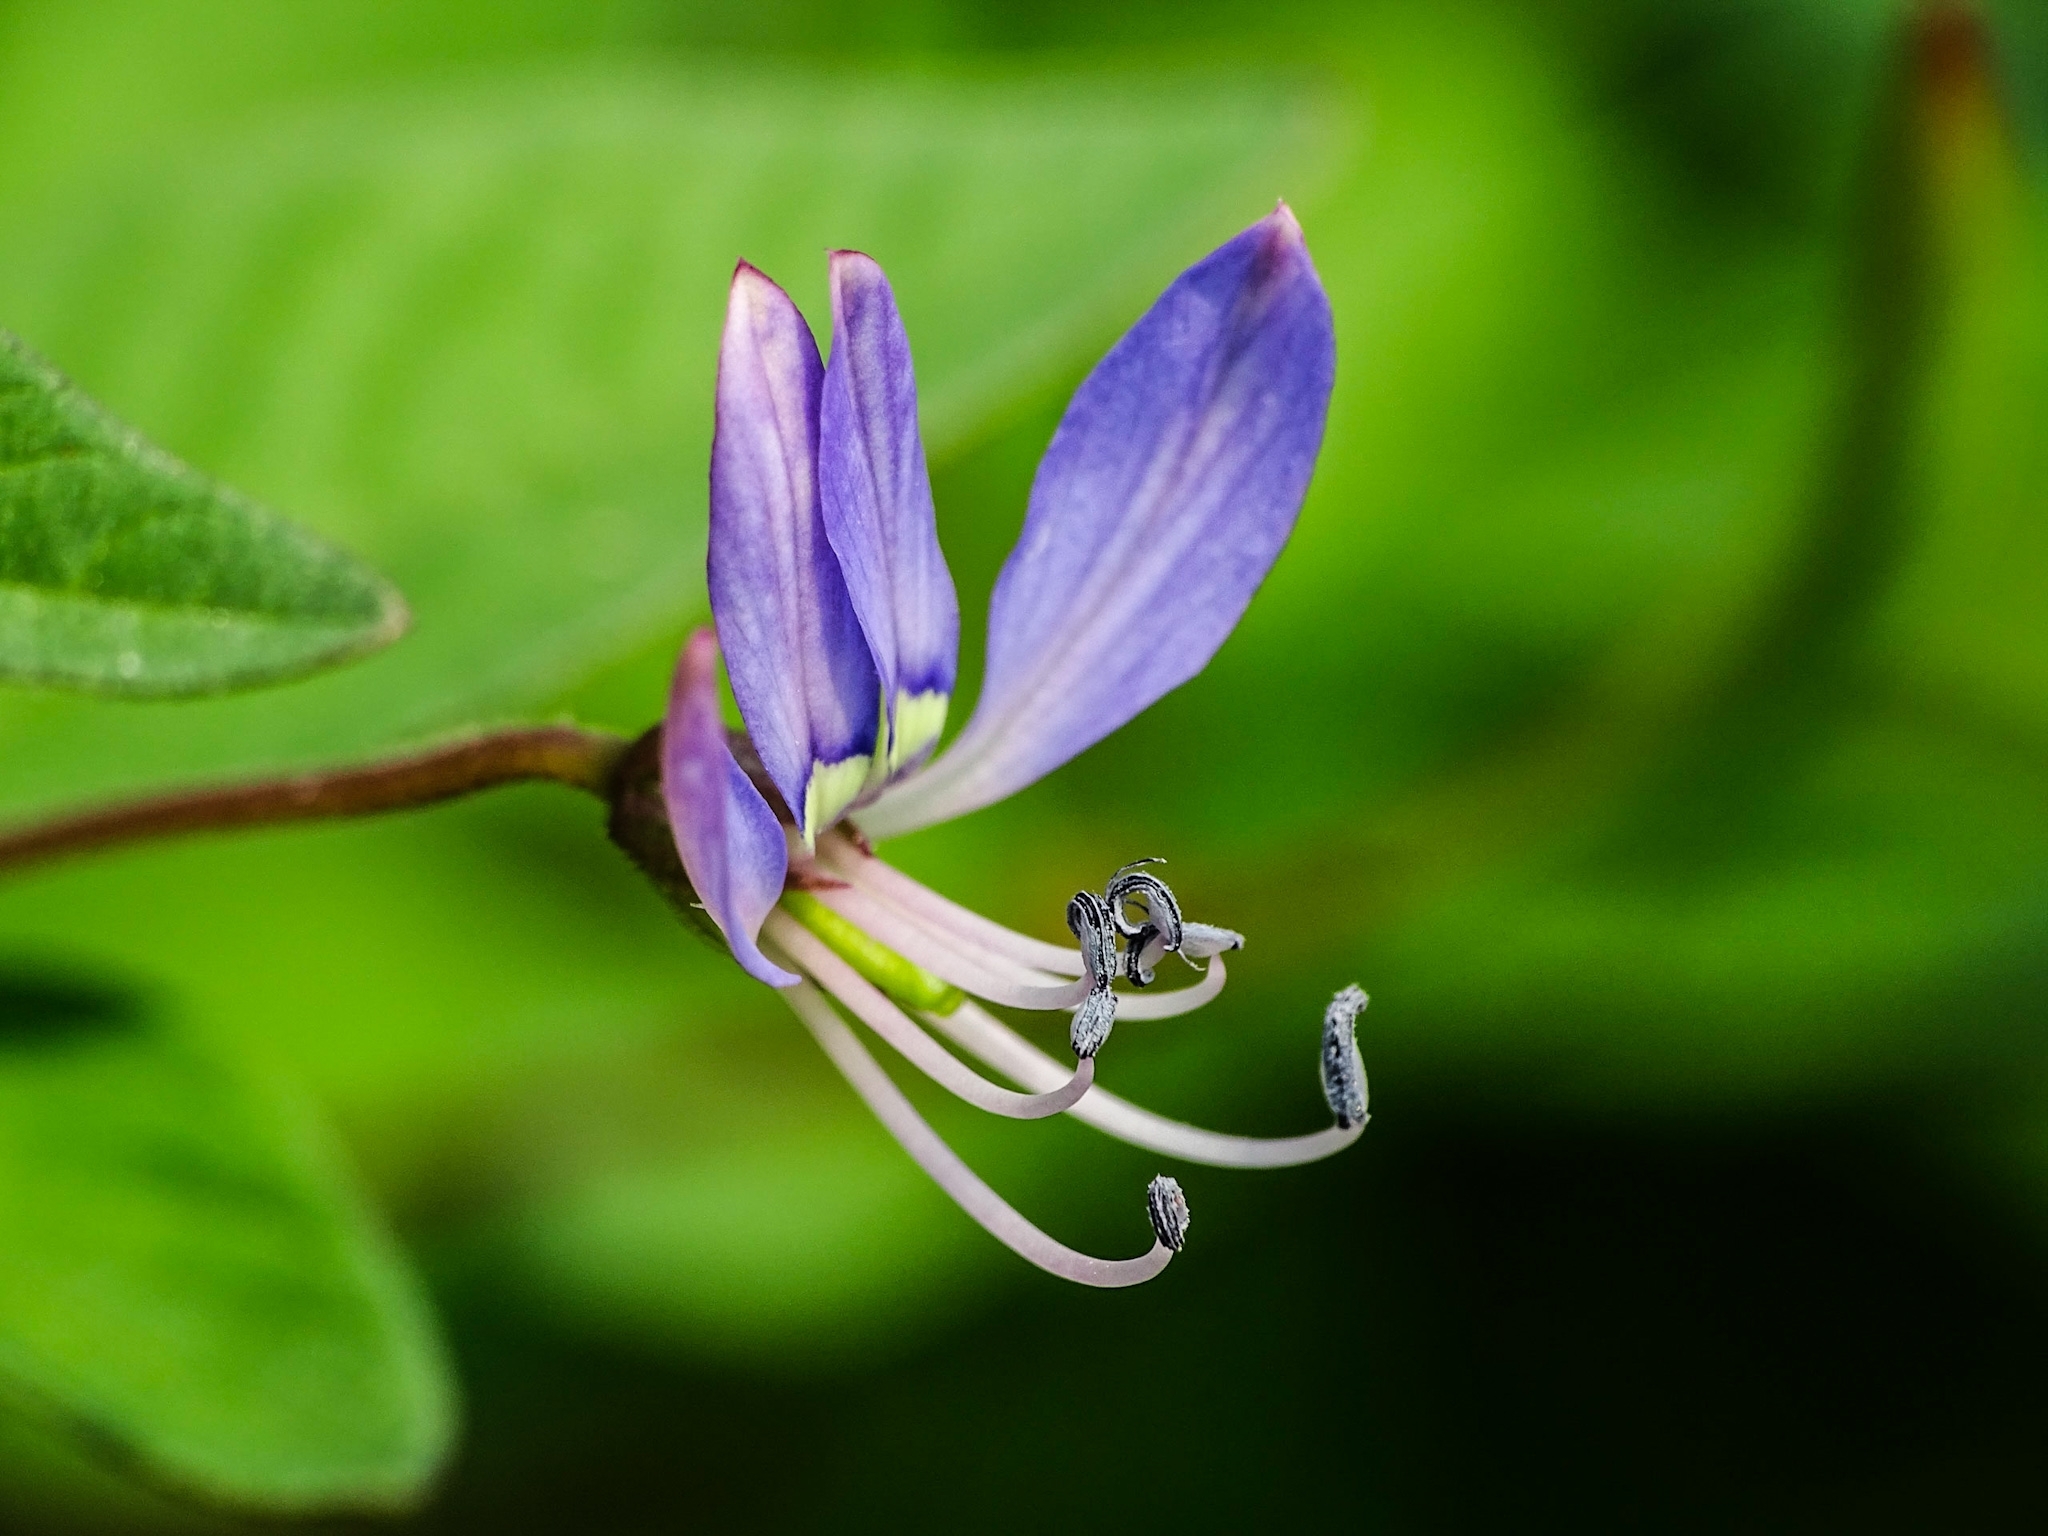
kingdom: Plantae
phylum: Tracheophyta
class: Magnoliopsida
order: Brassicales
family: Cleomaceae
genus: Sieruela
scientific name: Sieruela rutidosperma
